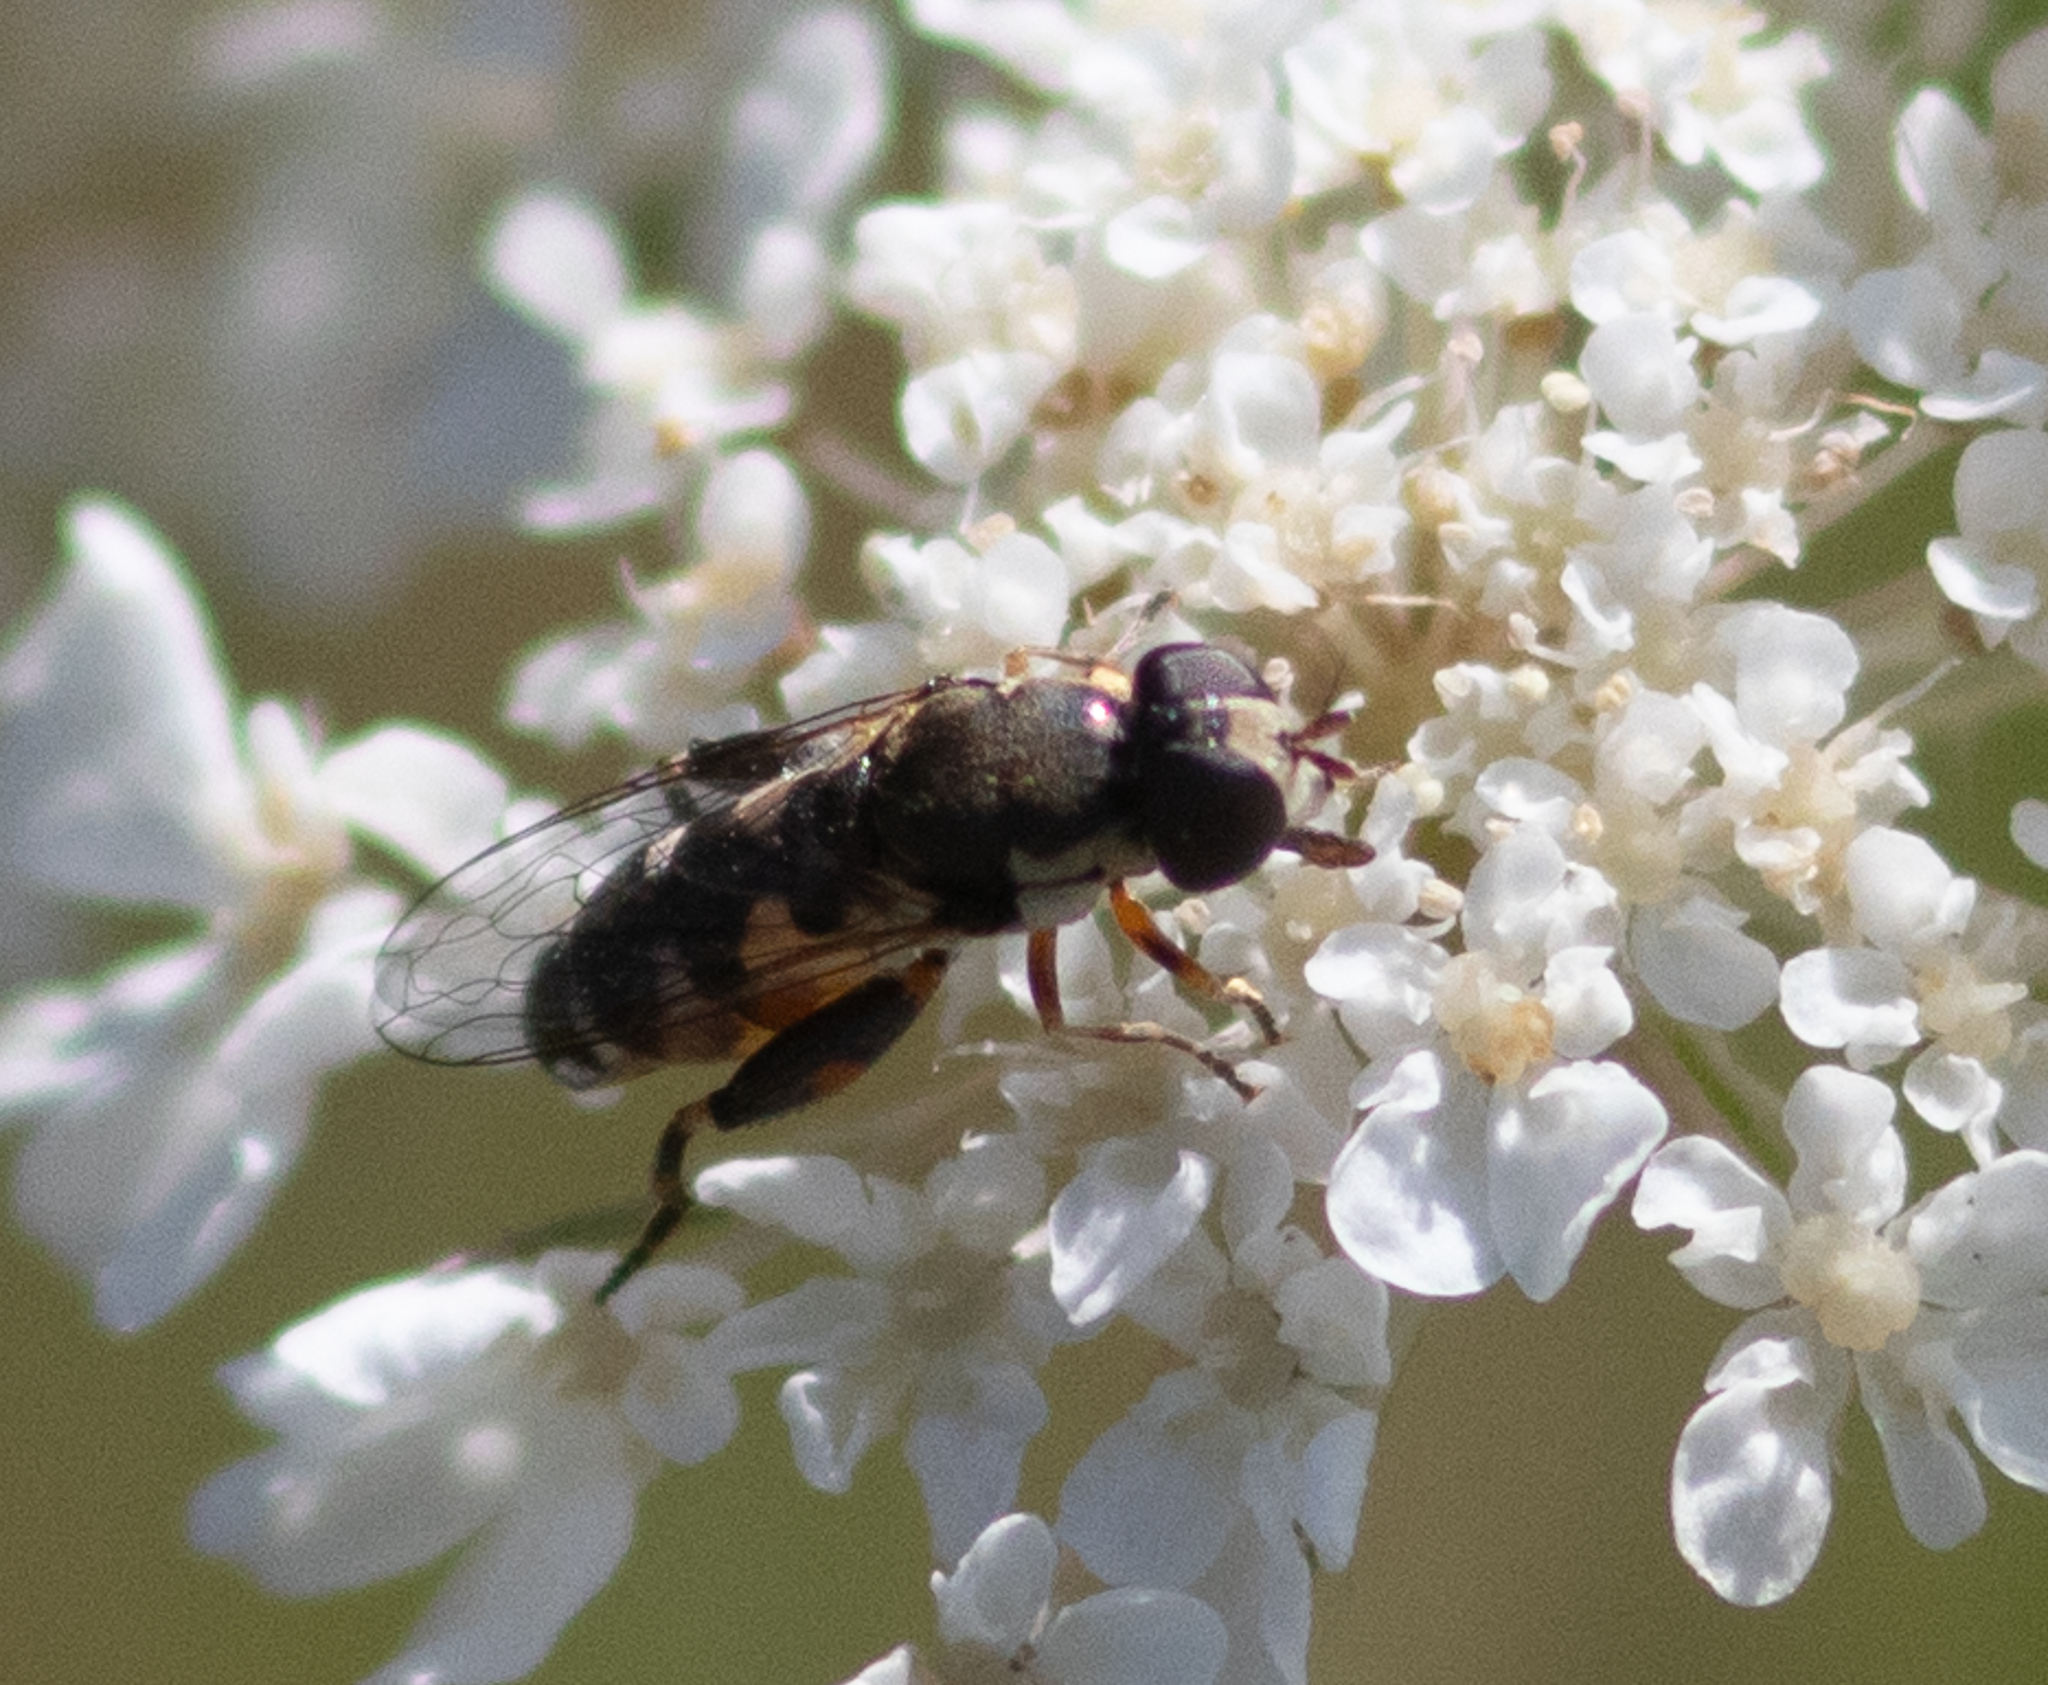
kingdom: Animalia
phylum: Arthropoda
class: Insecta
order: Diptera
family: Syrphidae
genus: Syritta
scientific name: Syritta pipiens
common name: Hover fly
